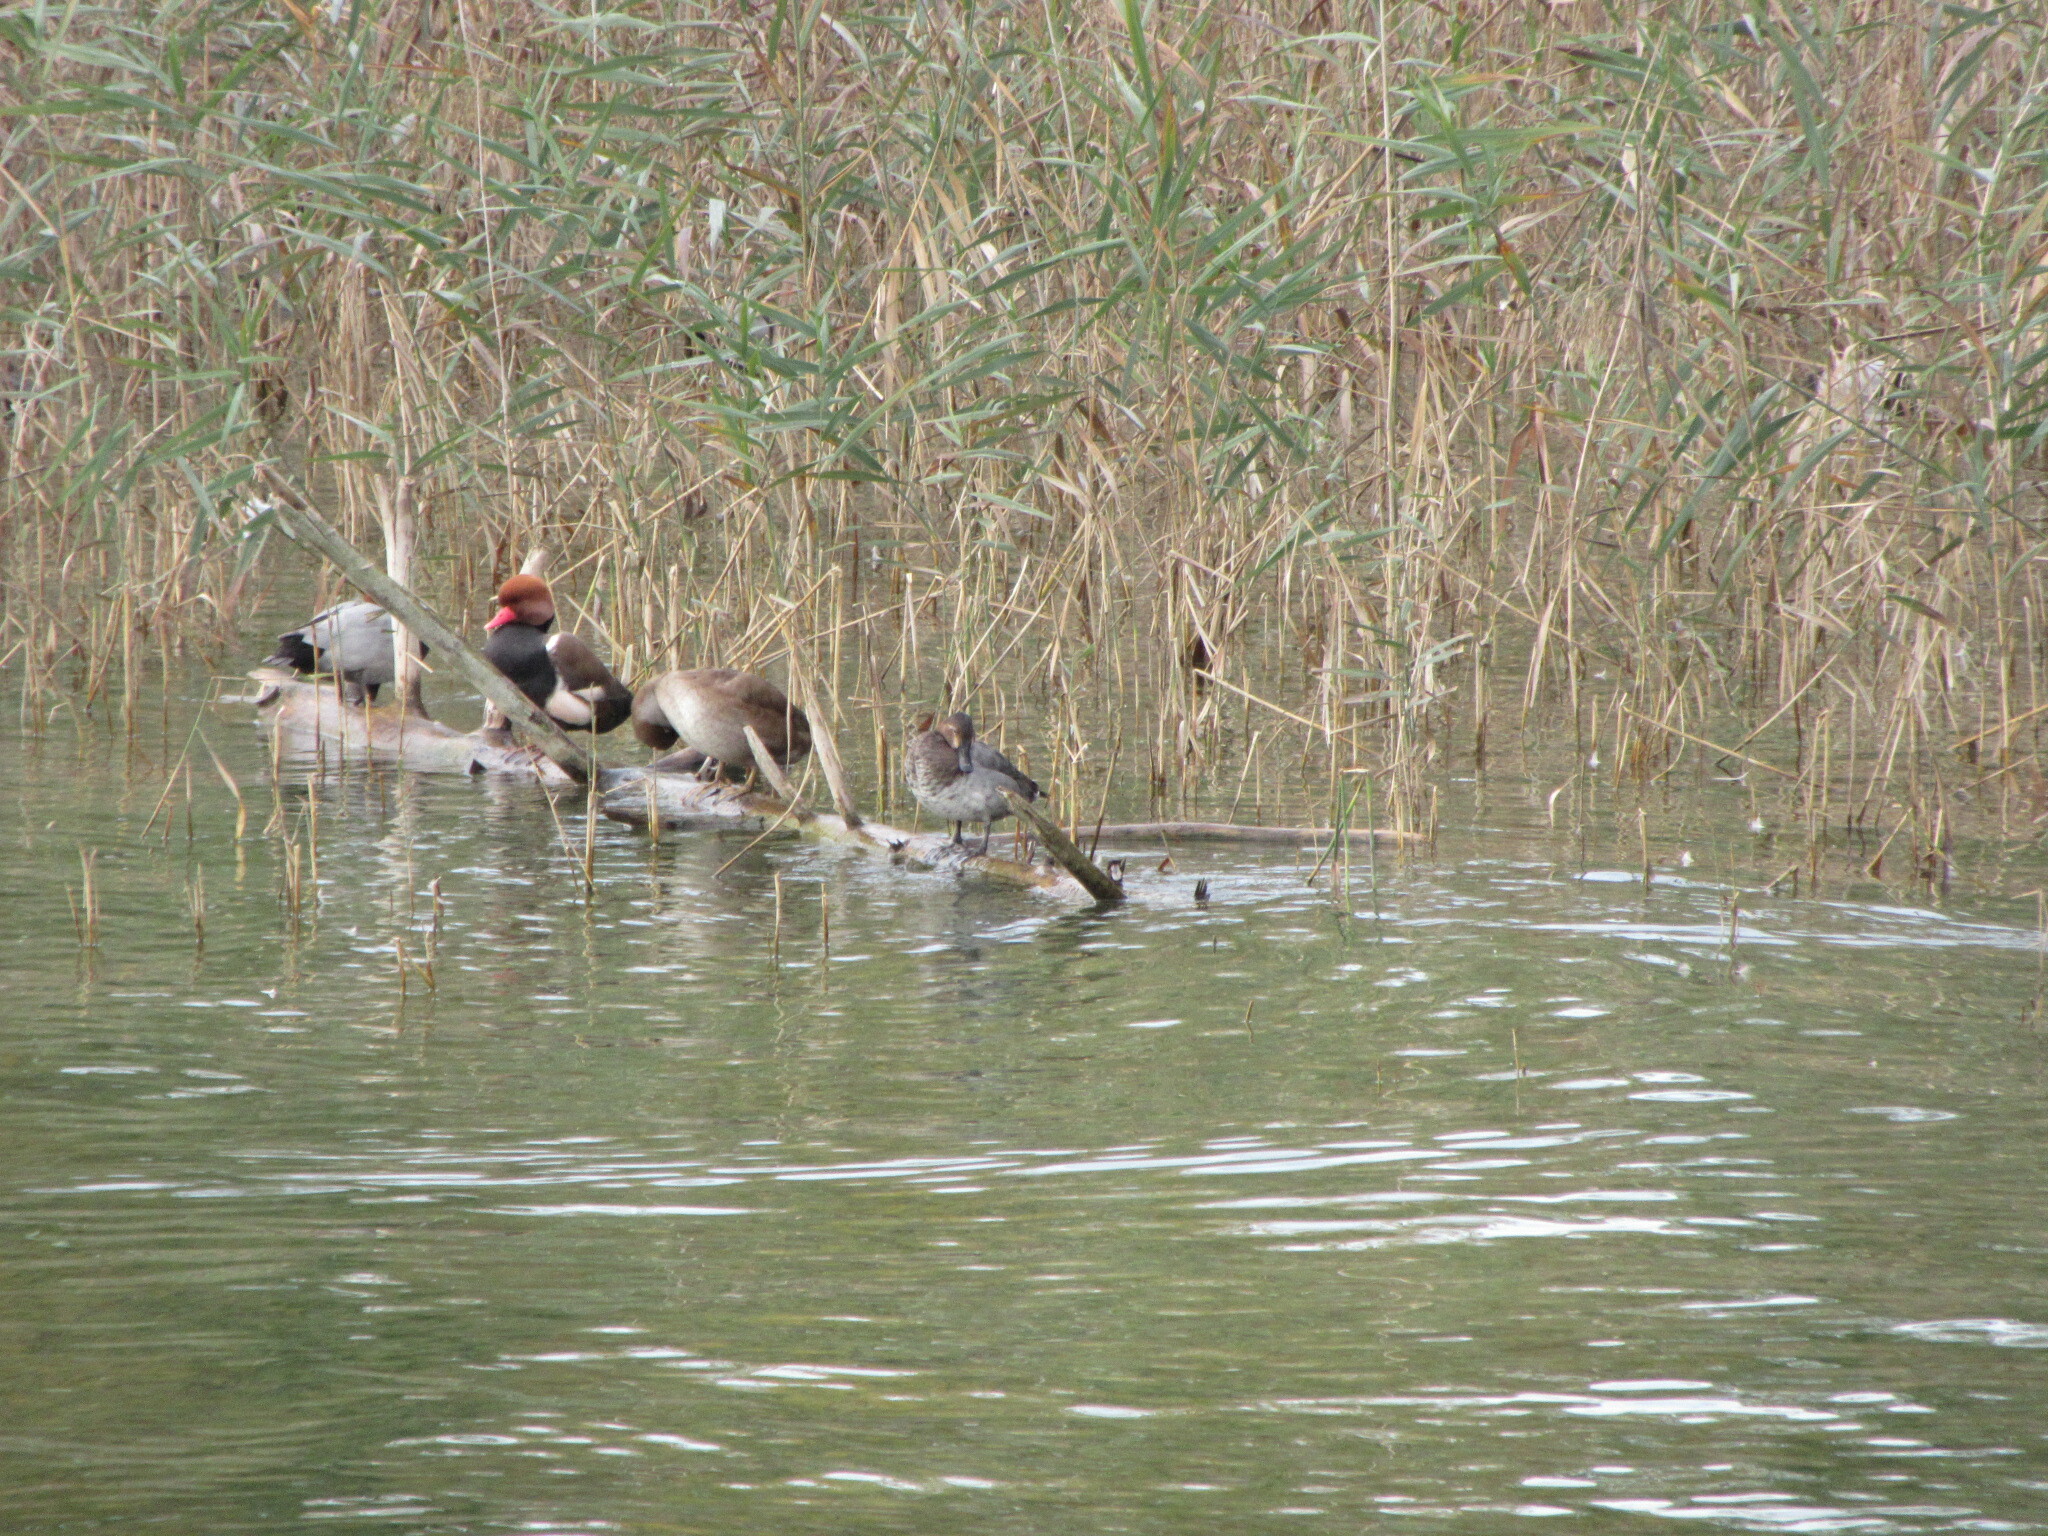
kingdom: Animalia
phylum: Chordata
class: Aves
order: Anseriformes
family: Anatidae
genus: Aythya
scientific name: Aythya ferina
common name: Common pochard
